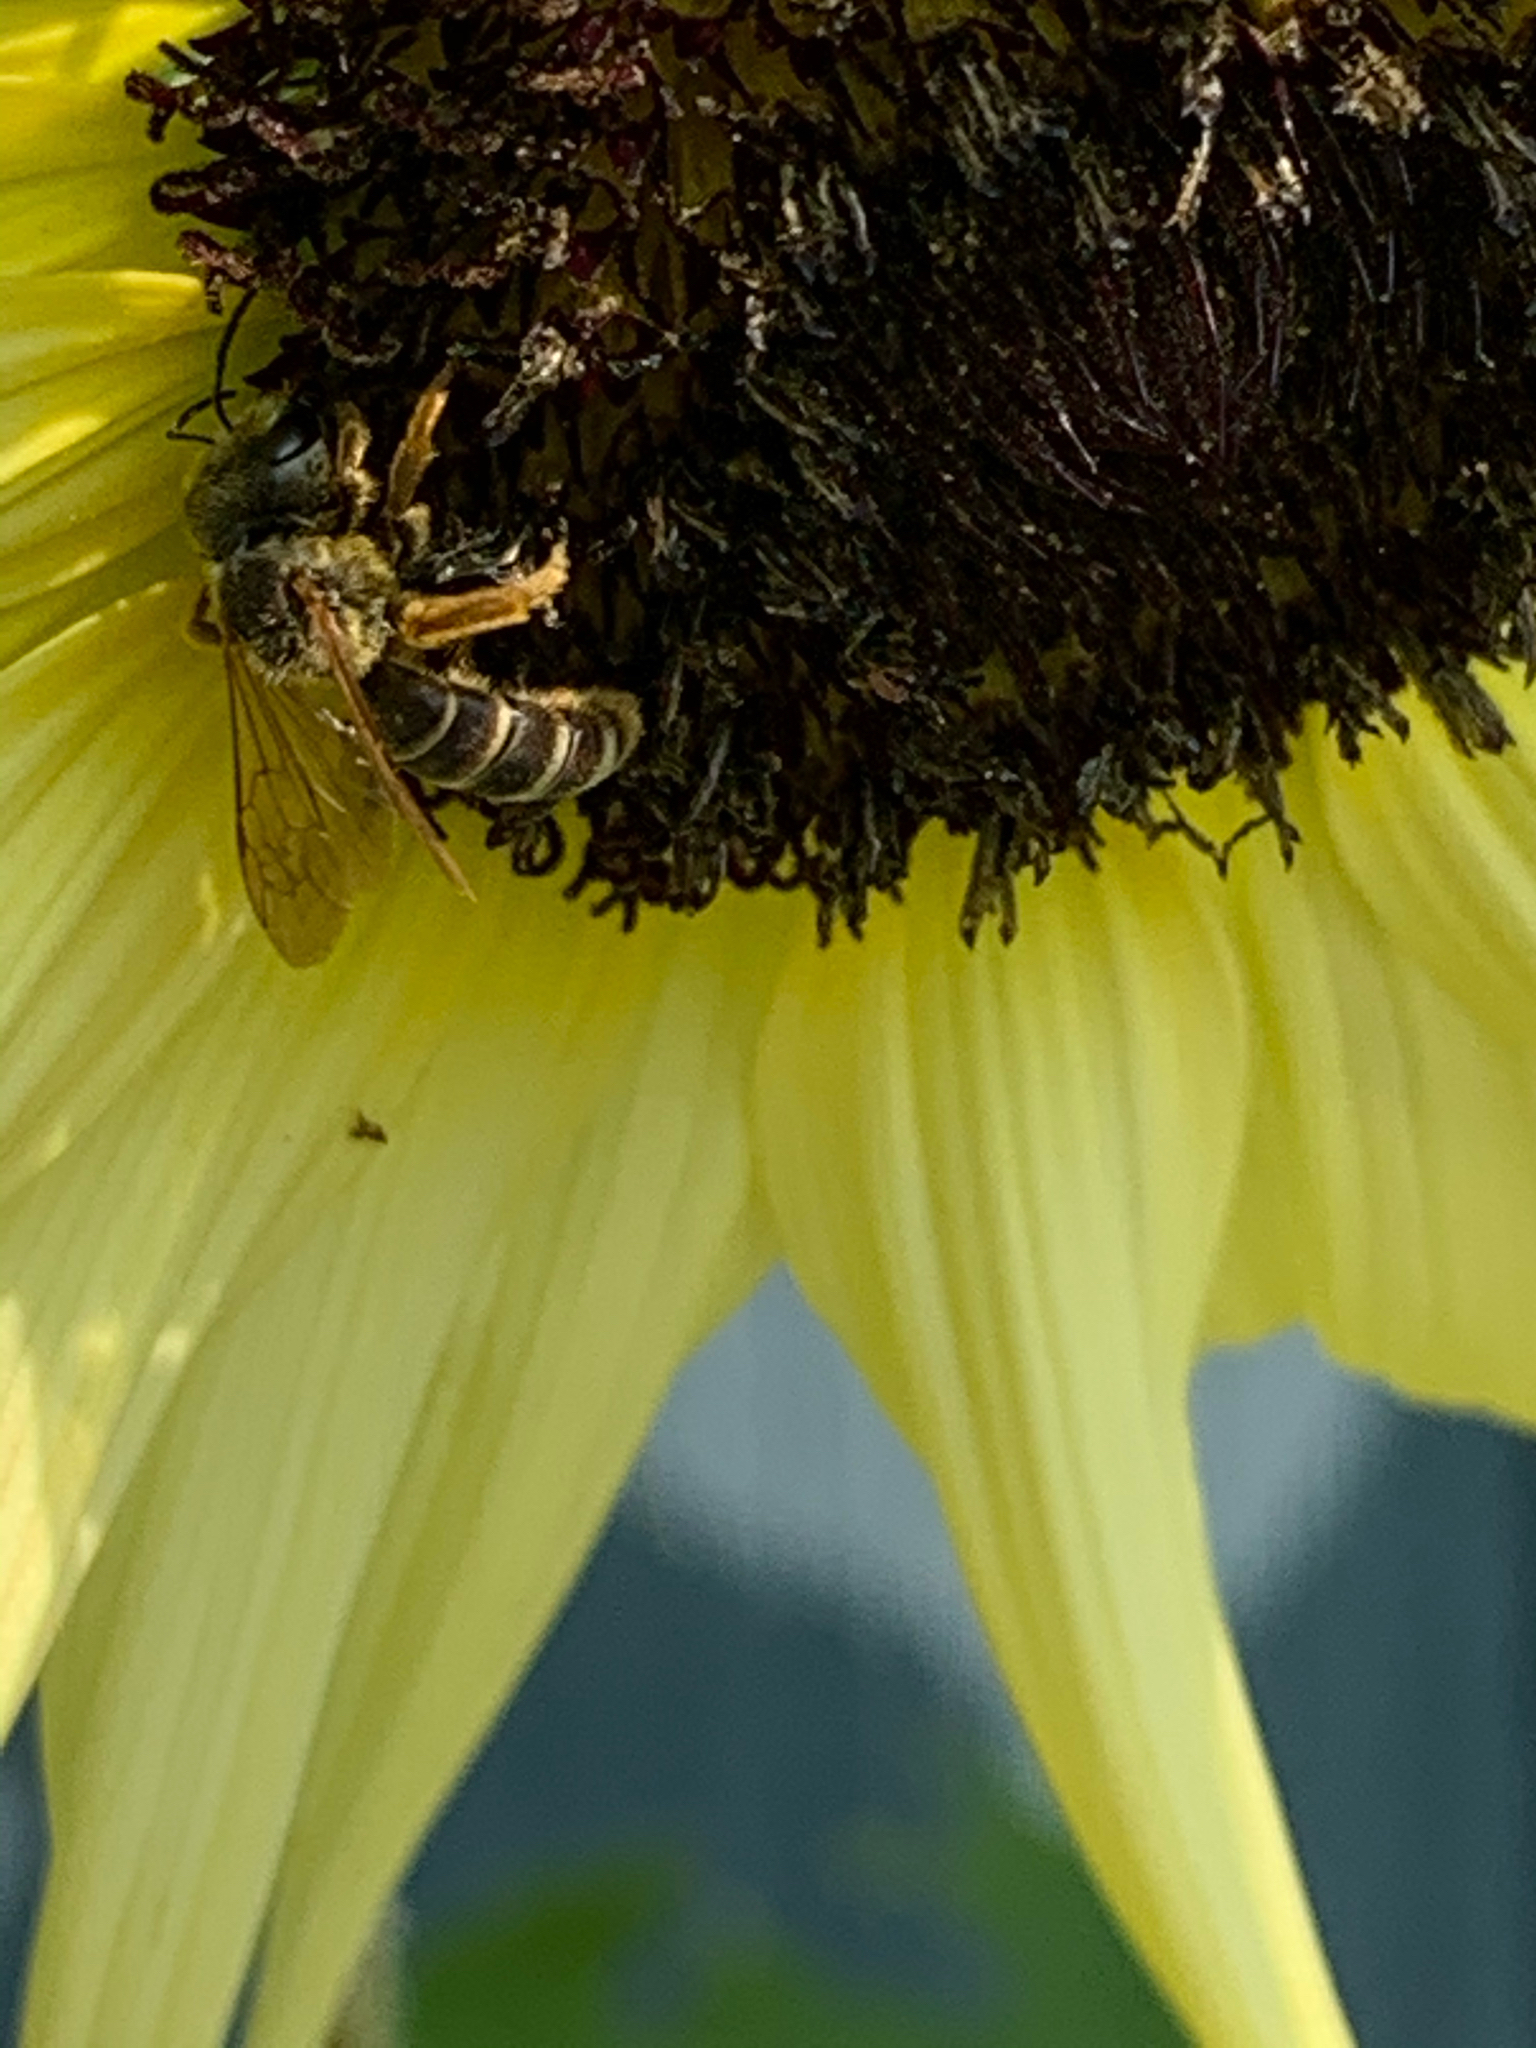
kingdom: Animalia
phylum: Arthropoda
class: Insecta
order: Hymenoptera
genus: Odontalictus
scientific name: Odontalictus
